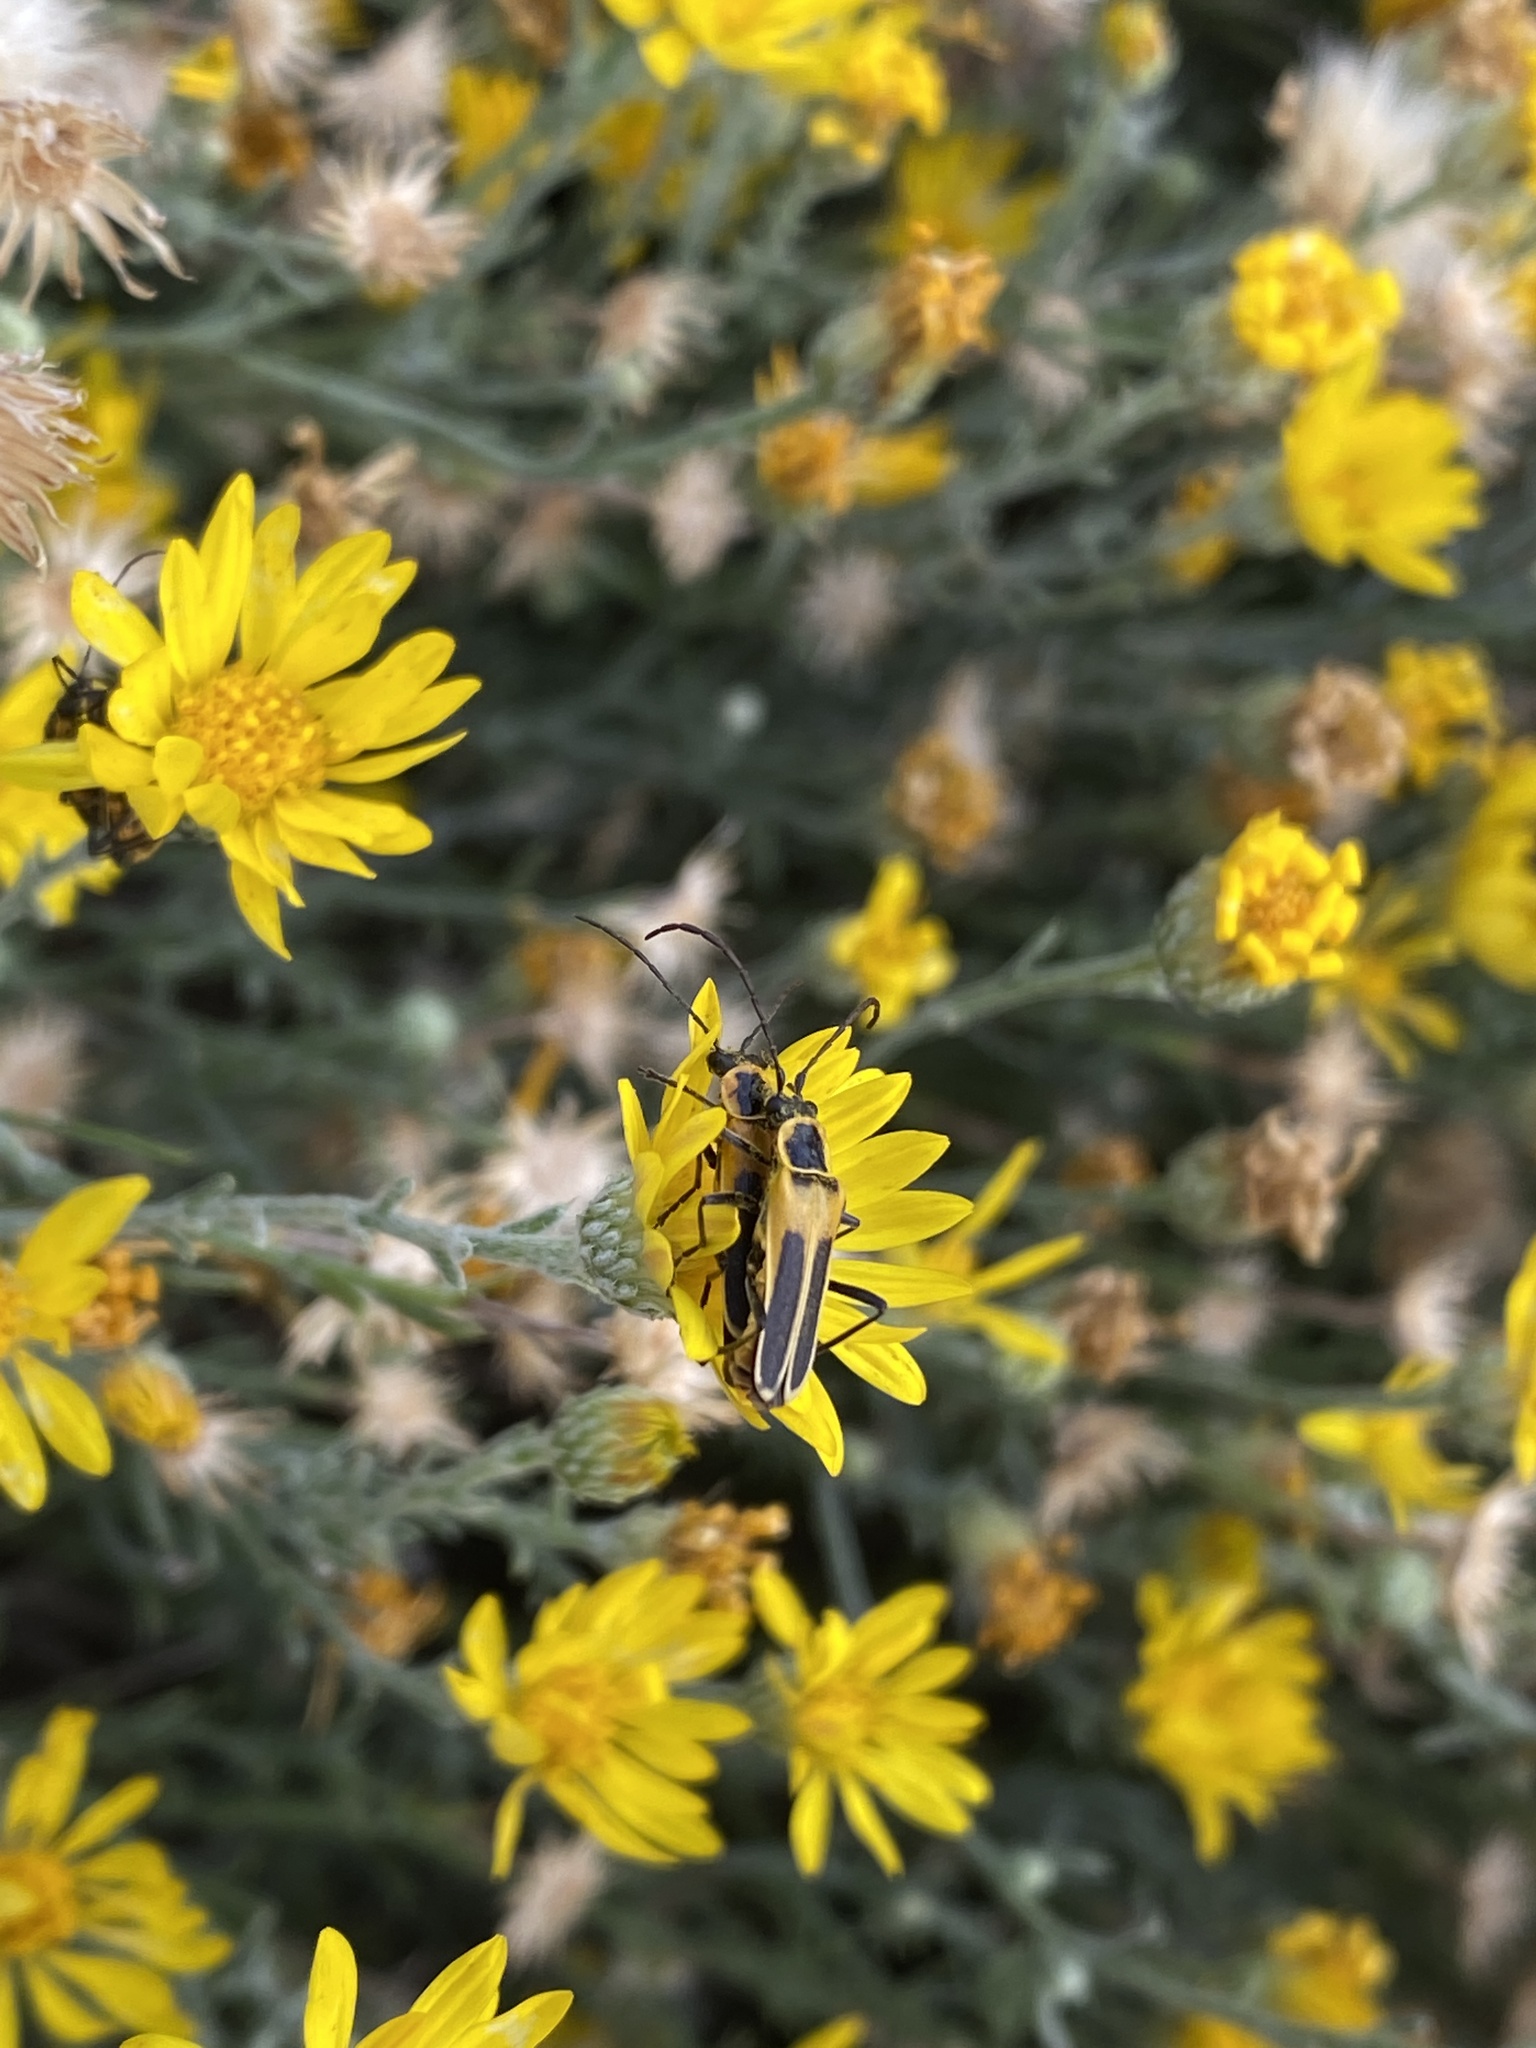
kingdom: Animalia
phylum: Arthropoda
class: Insecta
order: Coleoptera
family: Cantharidae
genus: Chauliognathus
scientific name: Chauliognathus lewisi
